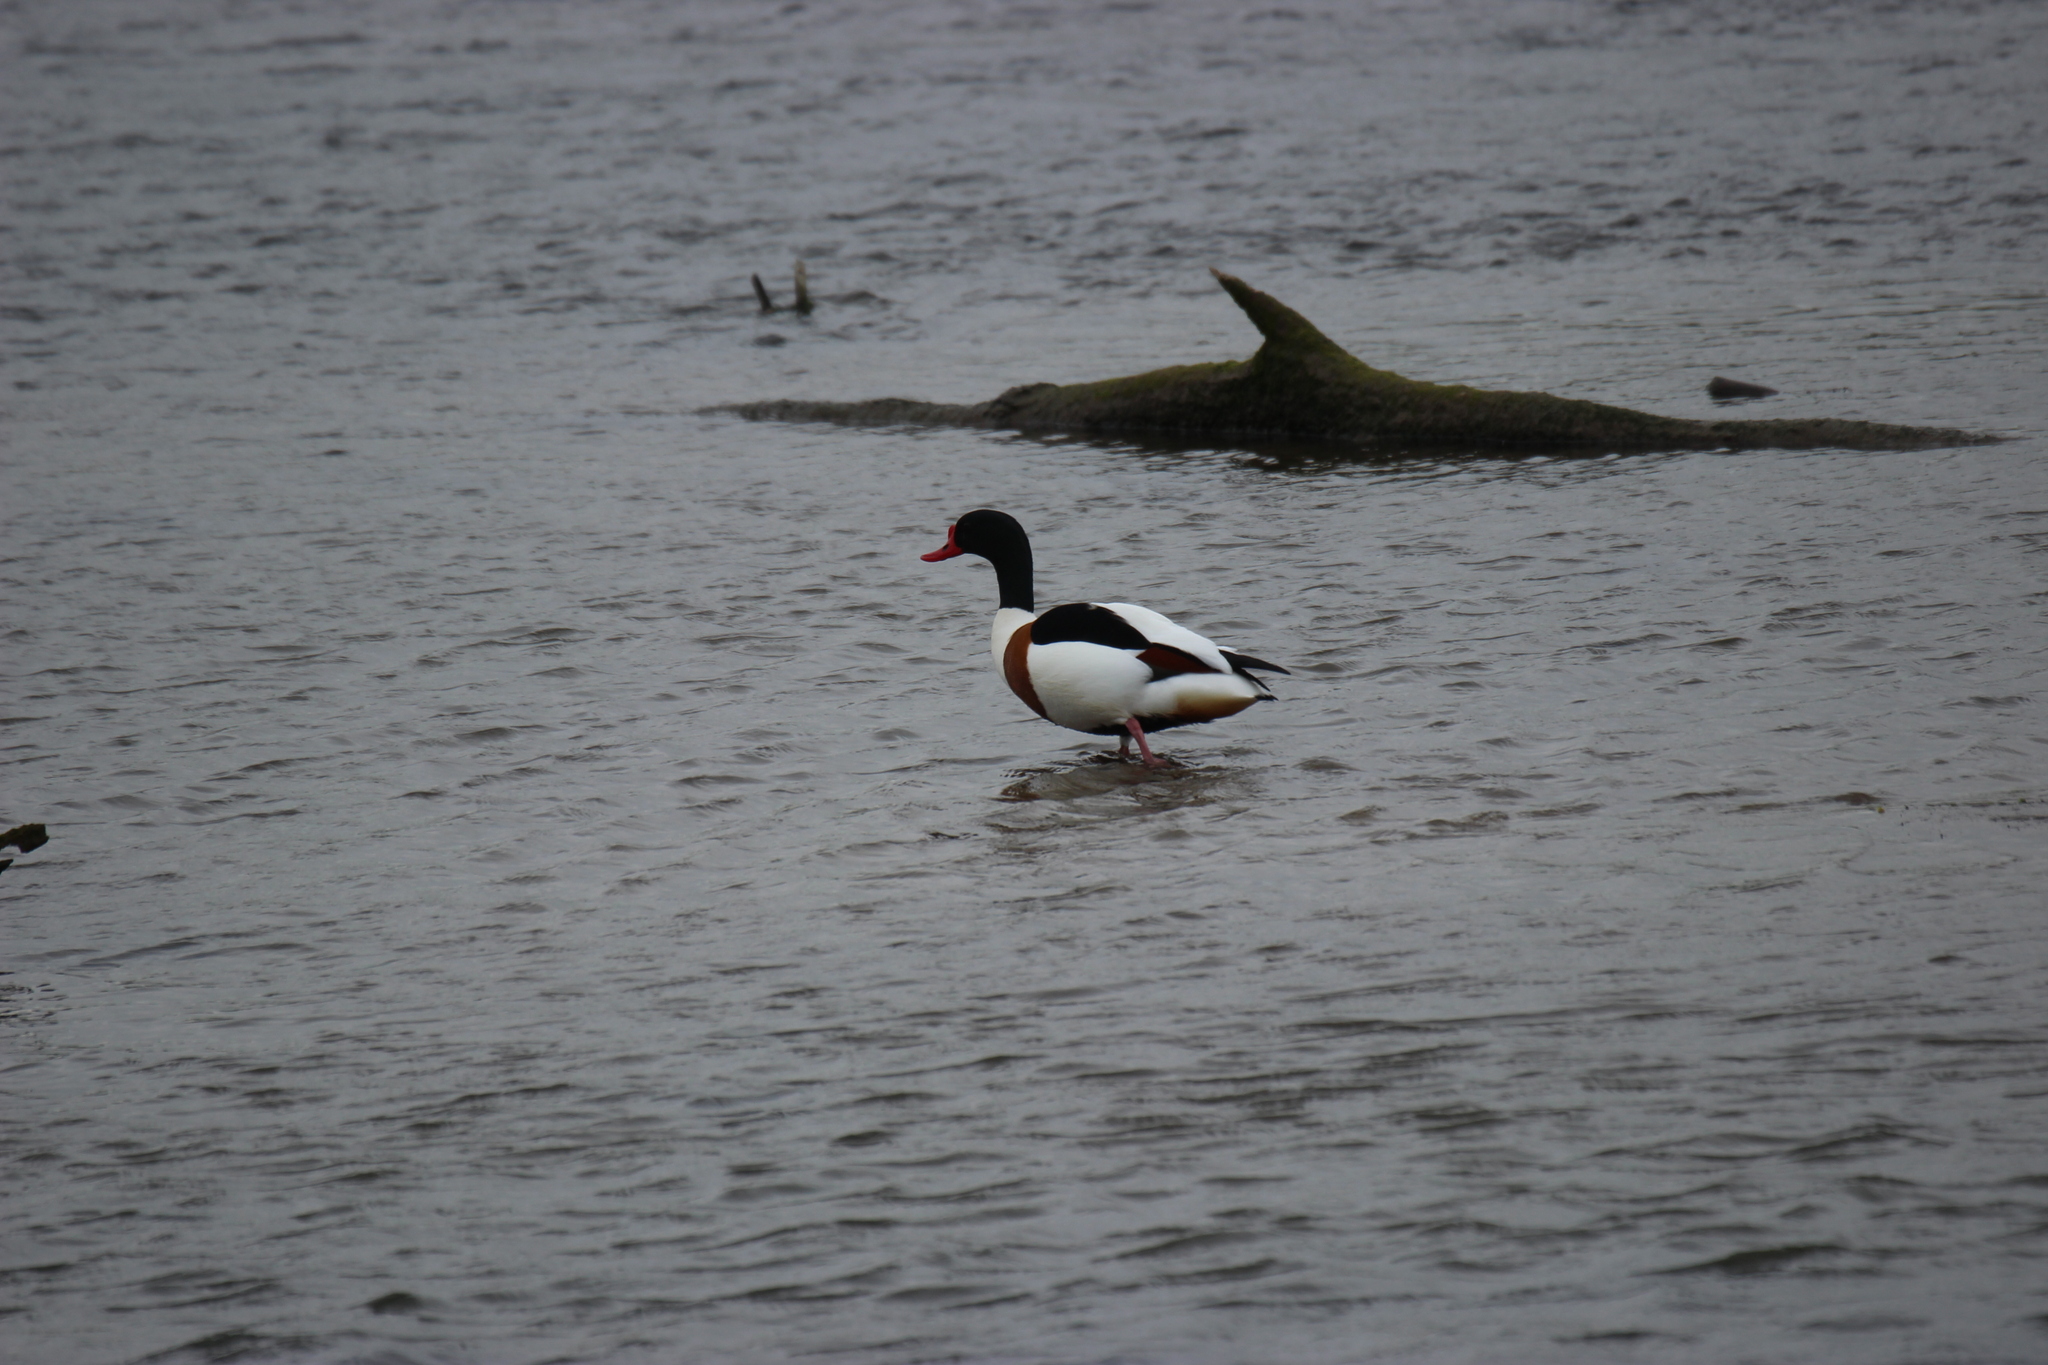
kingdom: Animalia
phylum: Chordata
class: Aves
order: Anseriformes
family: Anatidae
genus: Tadorna
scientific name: Tadorna tadorna
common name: Common shelduck
